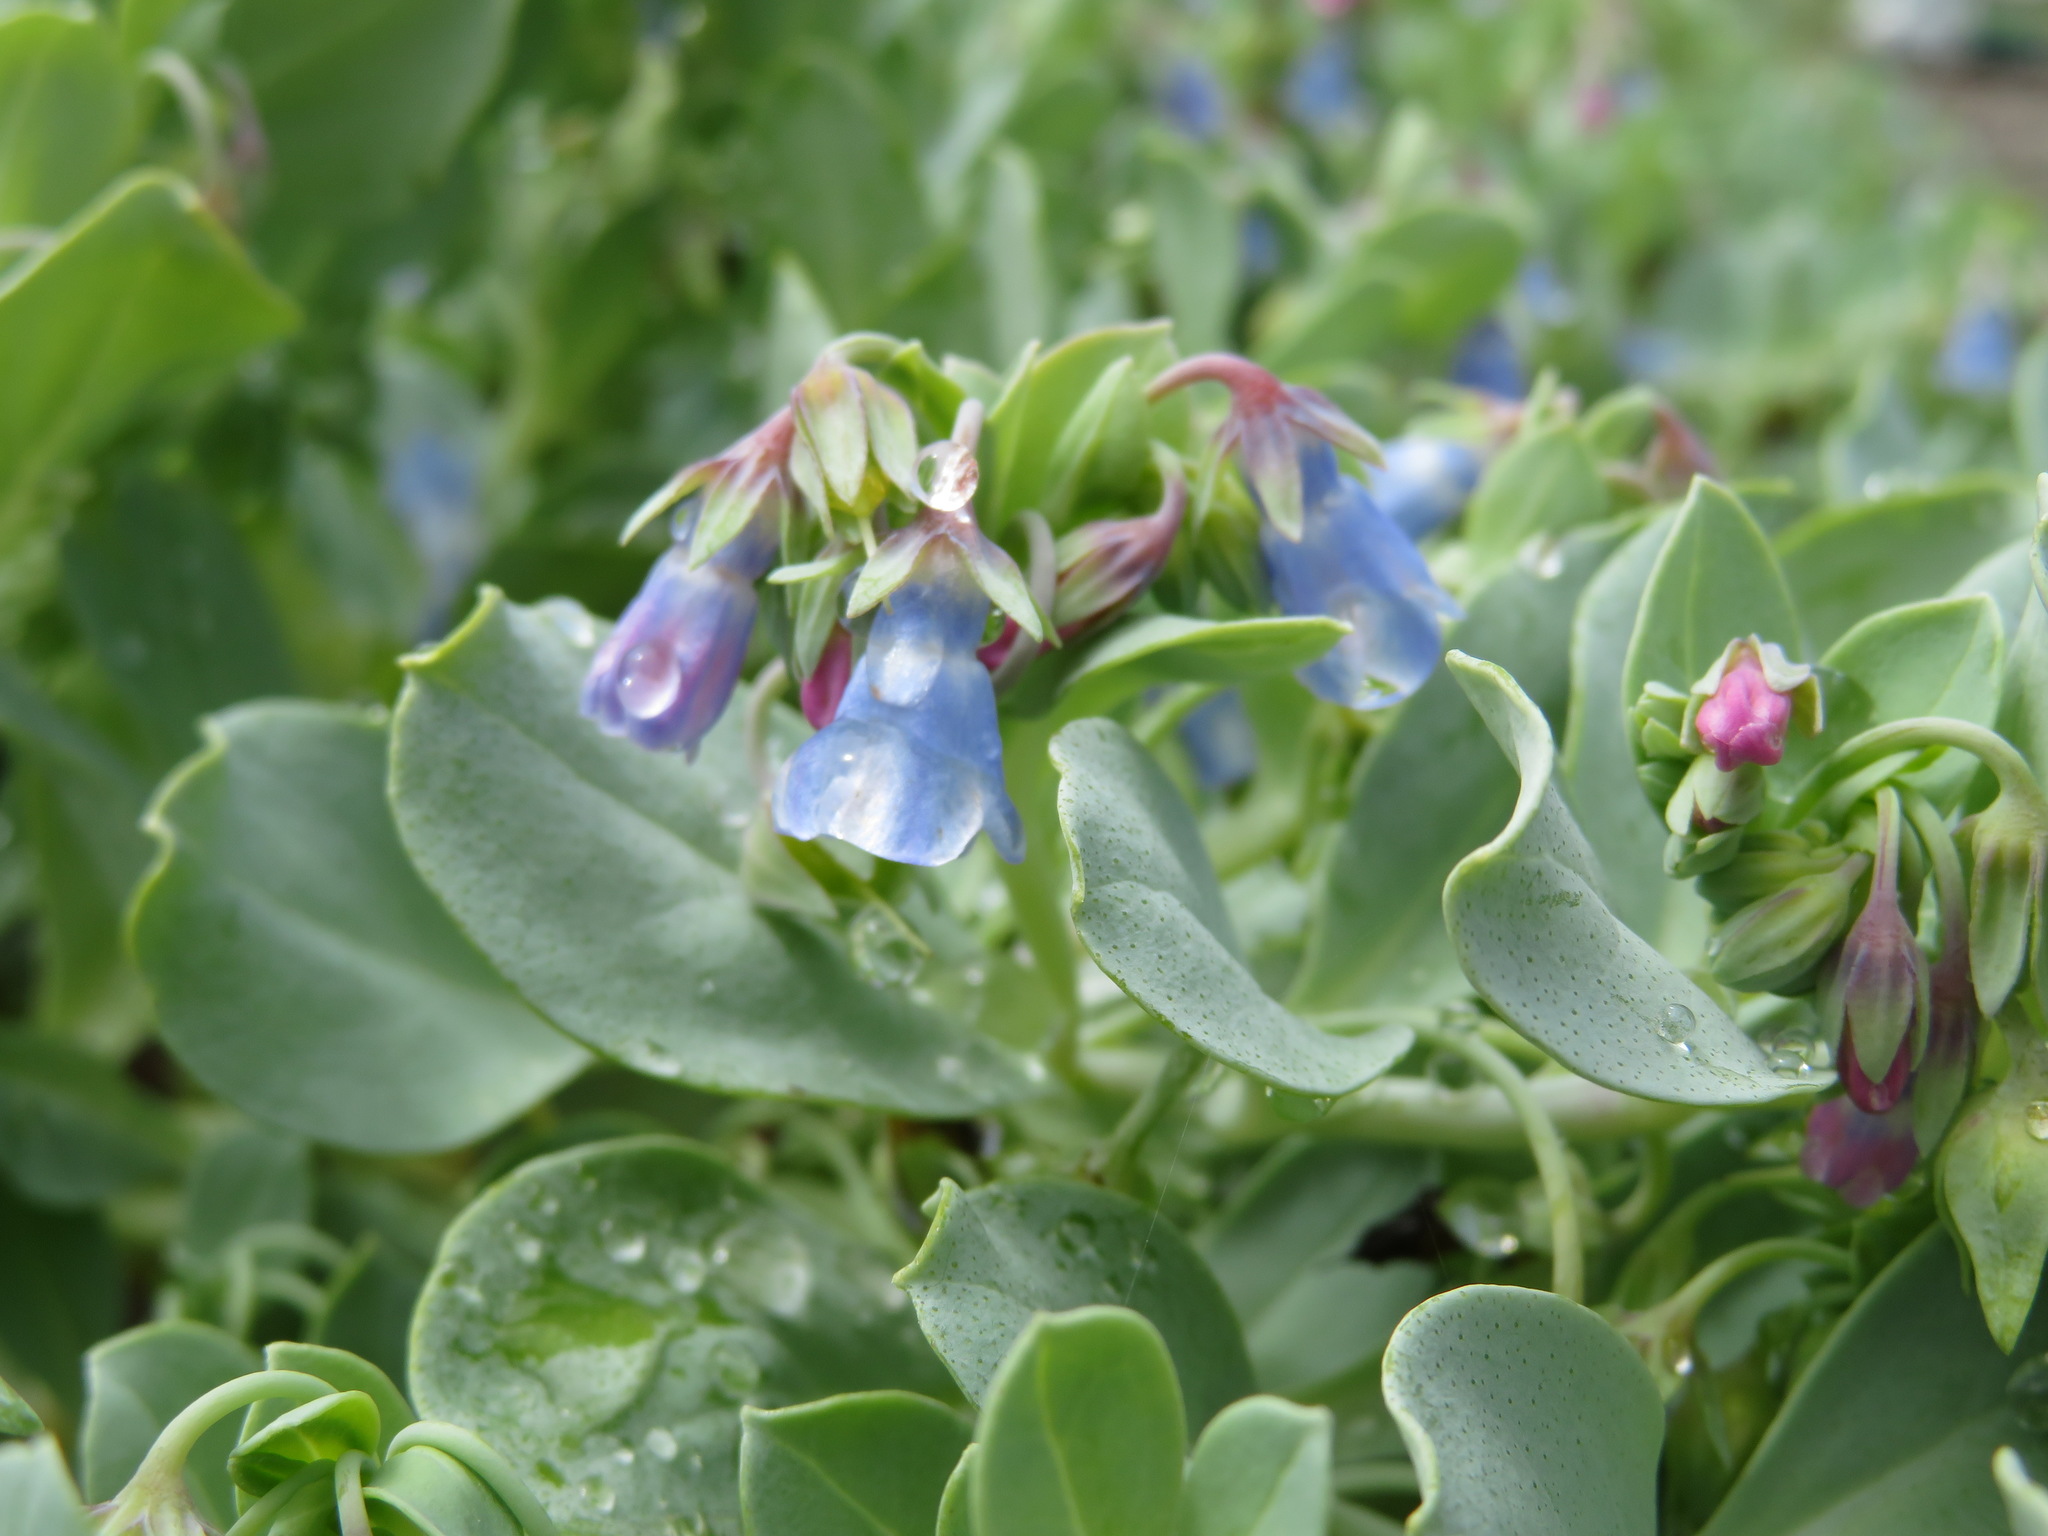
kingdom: Plantae
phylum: Tracheophyta
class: Magnoliopsida
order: Boraginales
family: Boraginaceae
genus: Mertensia
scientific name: Mertensia maritima
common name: Oysterplant
